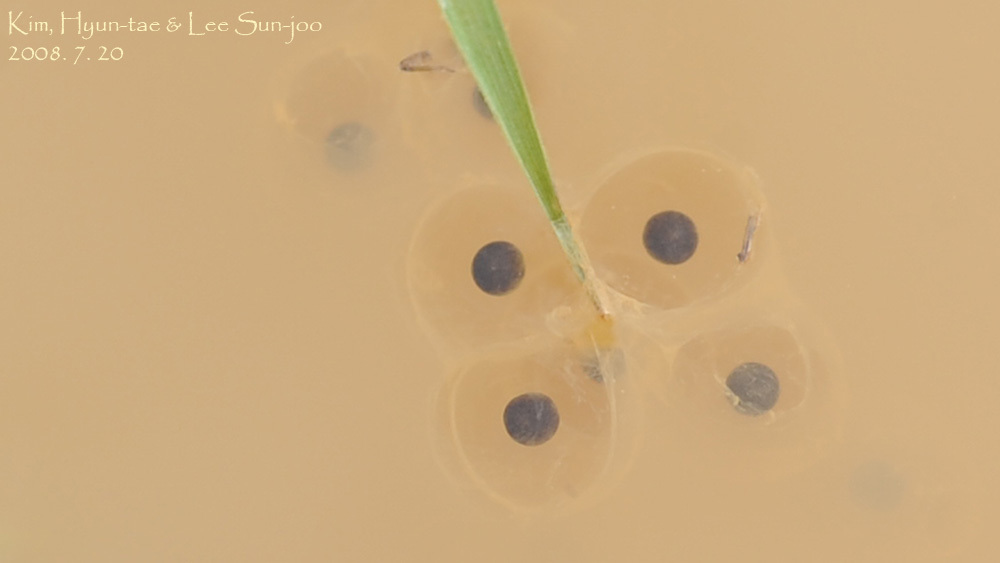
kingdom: Animalia
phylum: Chordata
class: Amphibia
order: Anura
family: Hylidae
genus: Dryophytes
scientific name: Dryophytes japonicus
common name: Japanese treefrog
